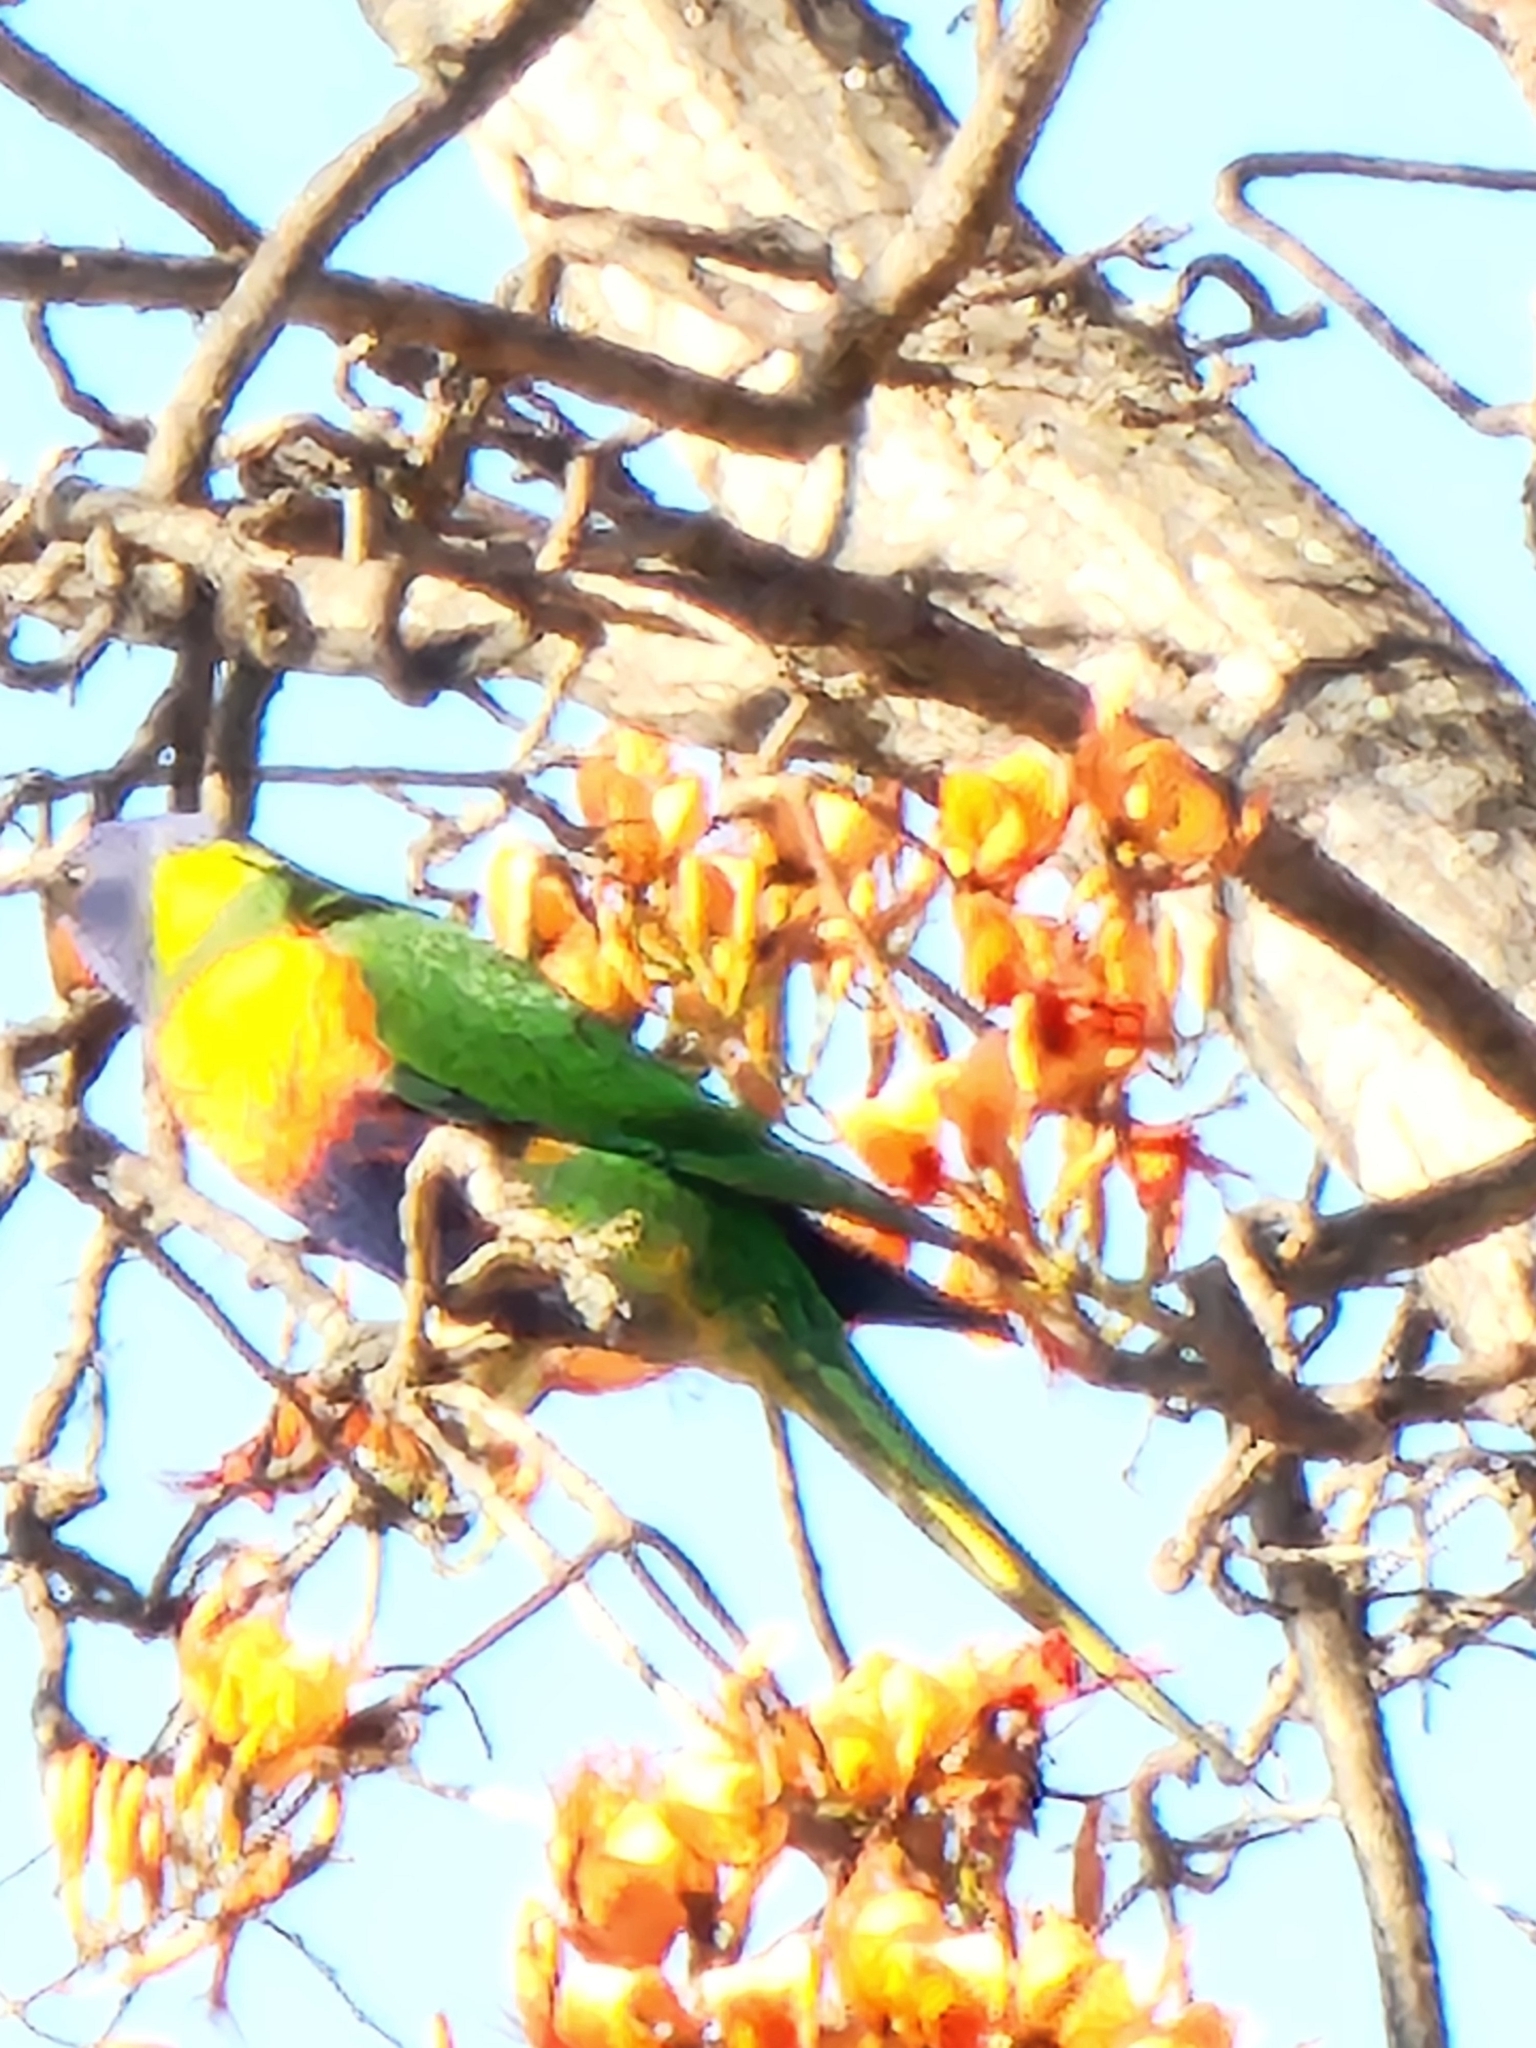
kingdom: Animalia
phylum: Chordata
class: Aves
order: Psittaciformes
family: Psittacidae
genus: Trichoglossus
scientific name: Trichoglossus haematodus
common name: Coconut lorikeet
